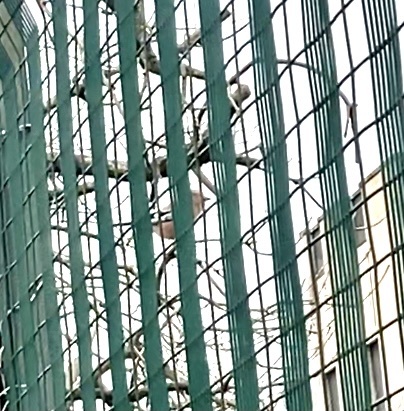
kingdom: Animalia
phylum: Chordata
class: Aves
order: Passeriformes
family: Corvidae
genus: Garrulus
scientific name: Garrulus glandarius
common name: Eurasian jay
